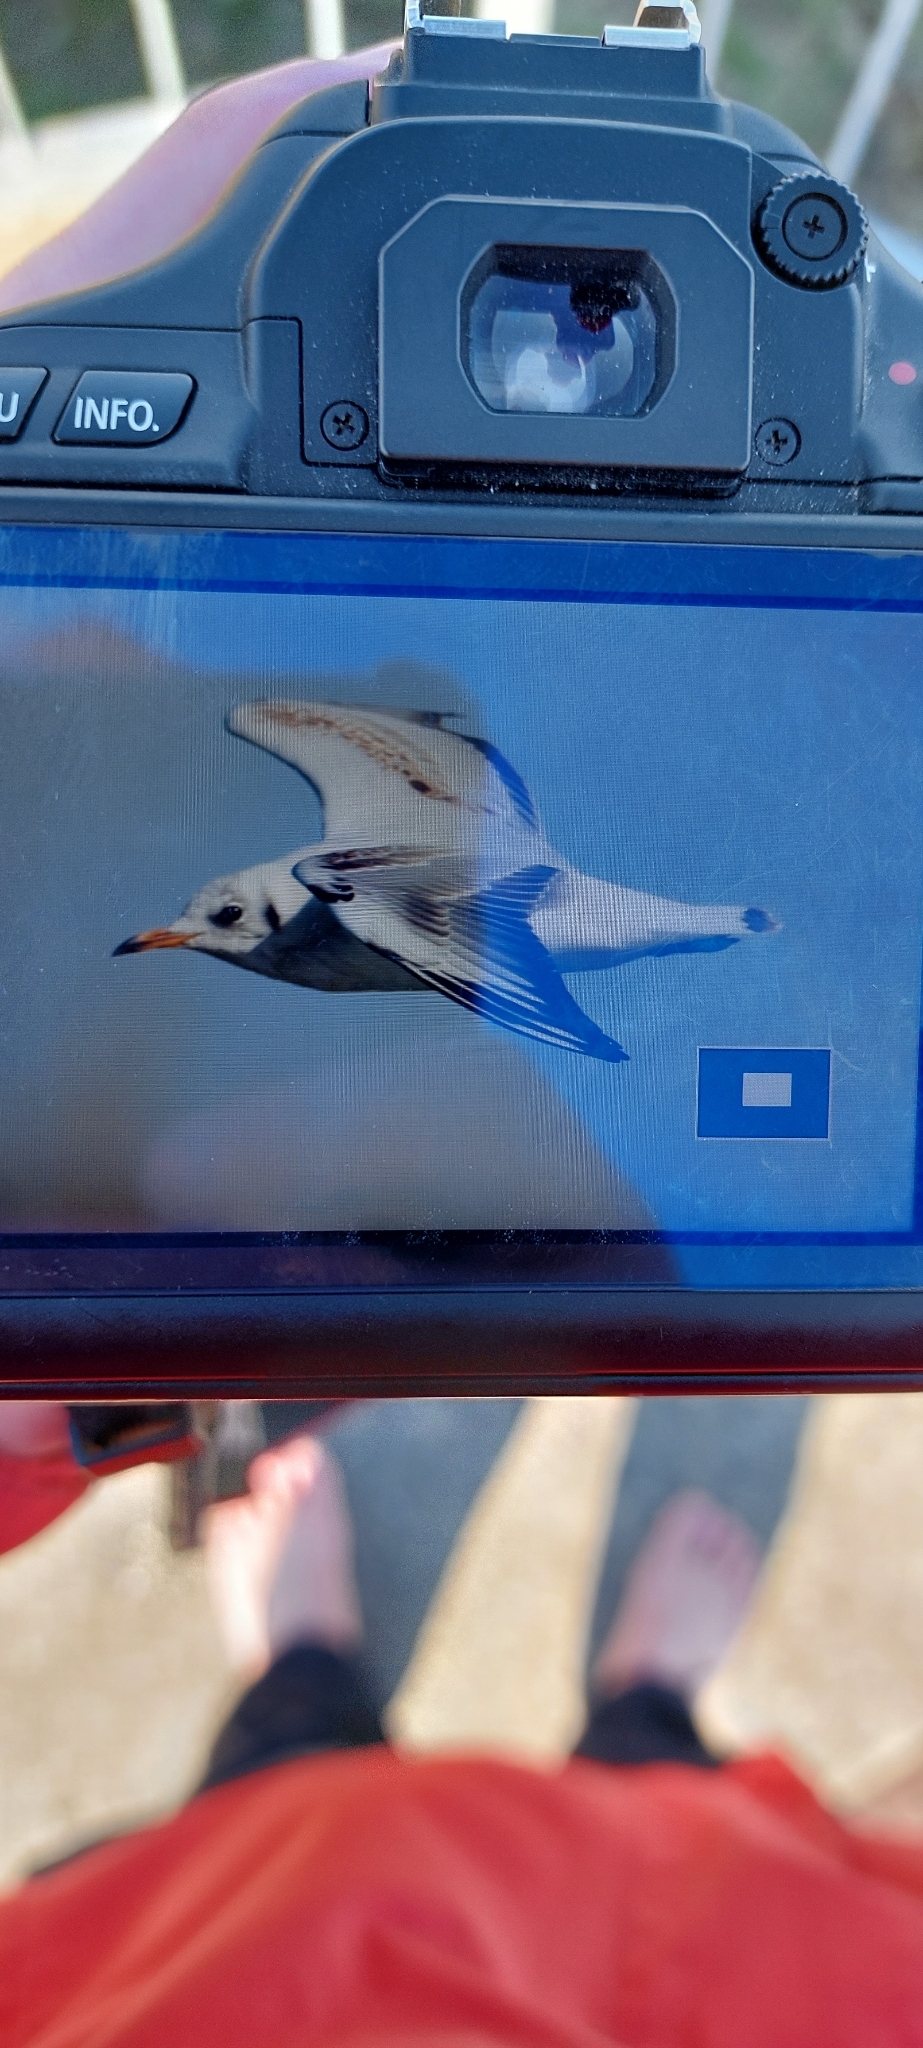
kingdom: Animalia
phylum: Chordata
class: Aves
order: Charadriiformes
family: Laridae
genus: Chroicocephalus
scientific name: Chroicocephalus ridibundus
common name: Black-headed gull
